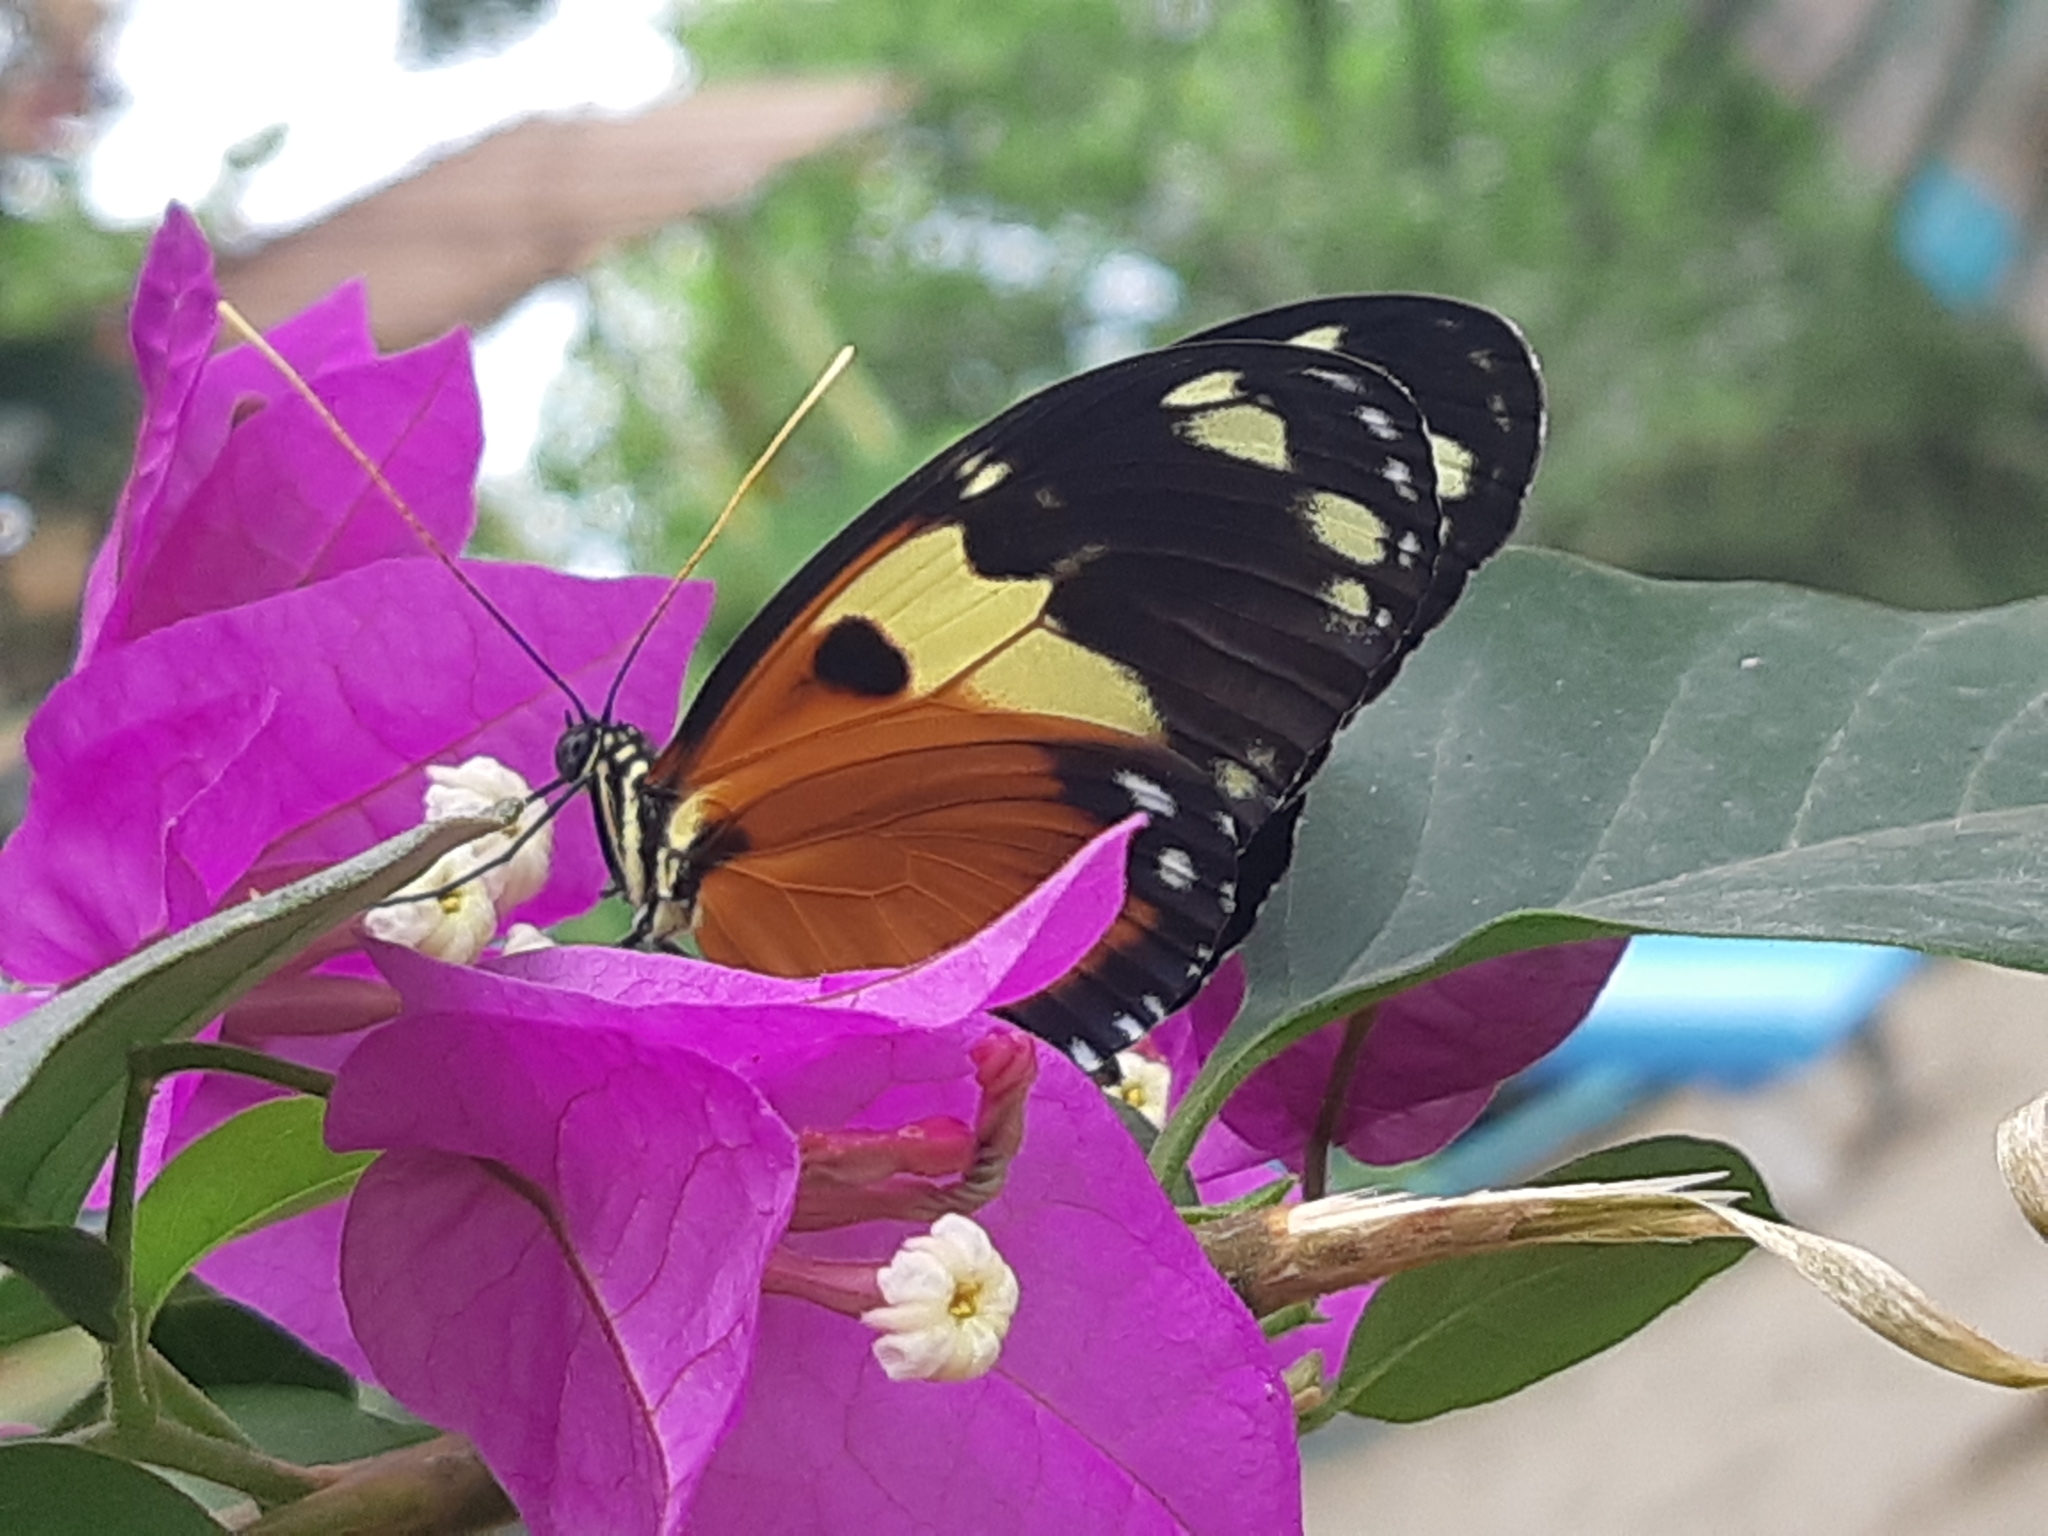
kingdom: Animalia
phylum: Arthropoda
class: Insecta
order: Lepidoptera
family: Nymphalidae
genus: Heliconius
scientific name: Heliconius ismenius
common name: Ismenius tiger
